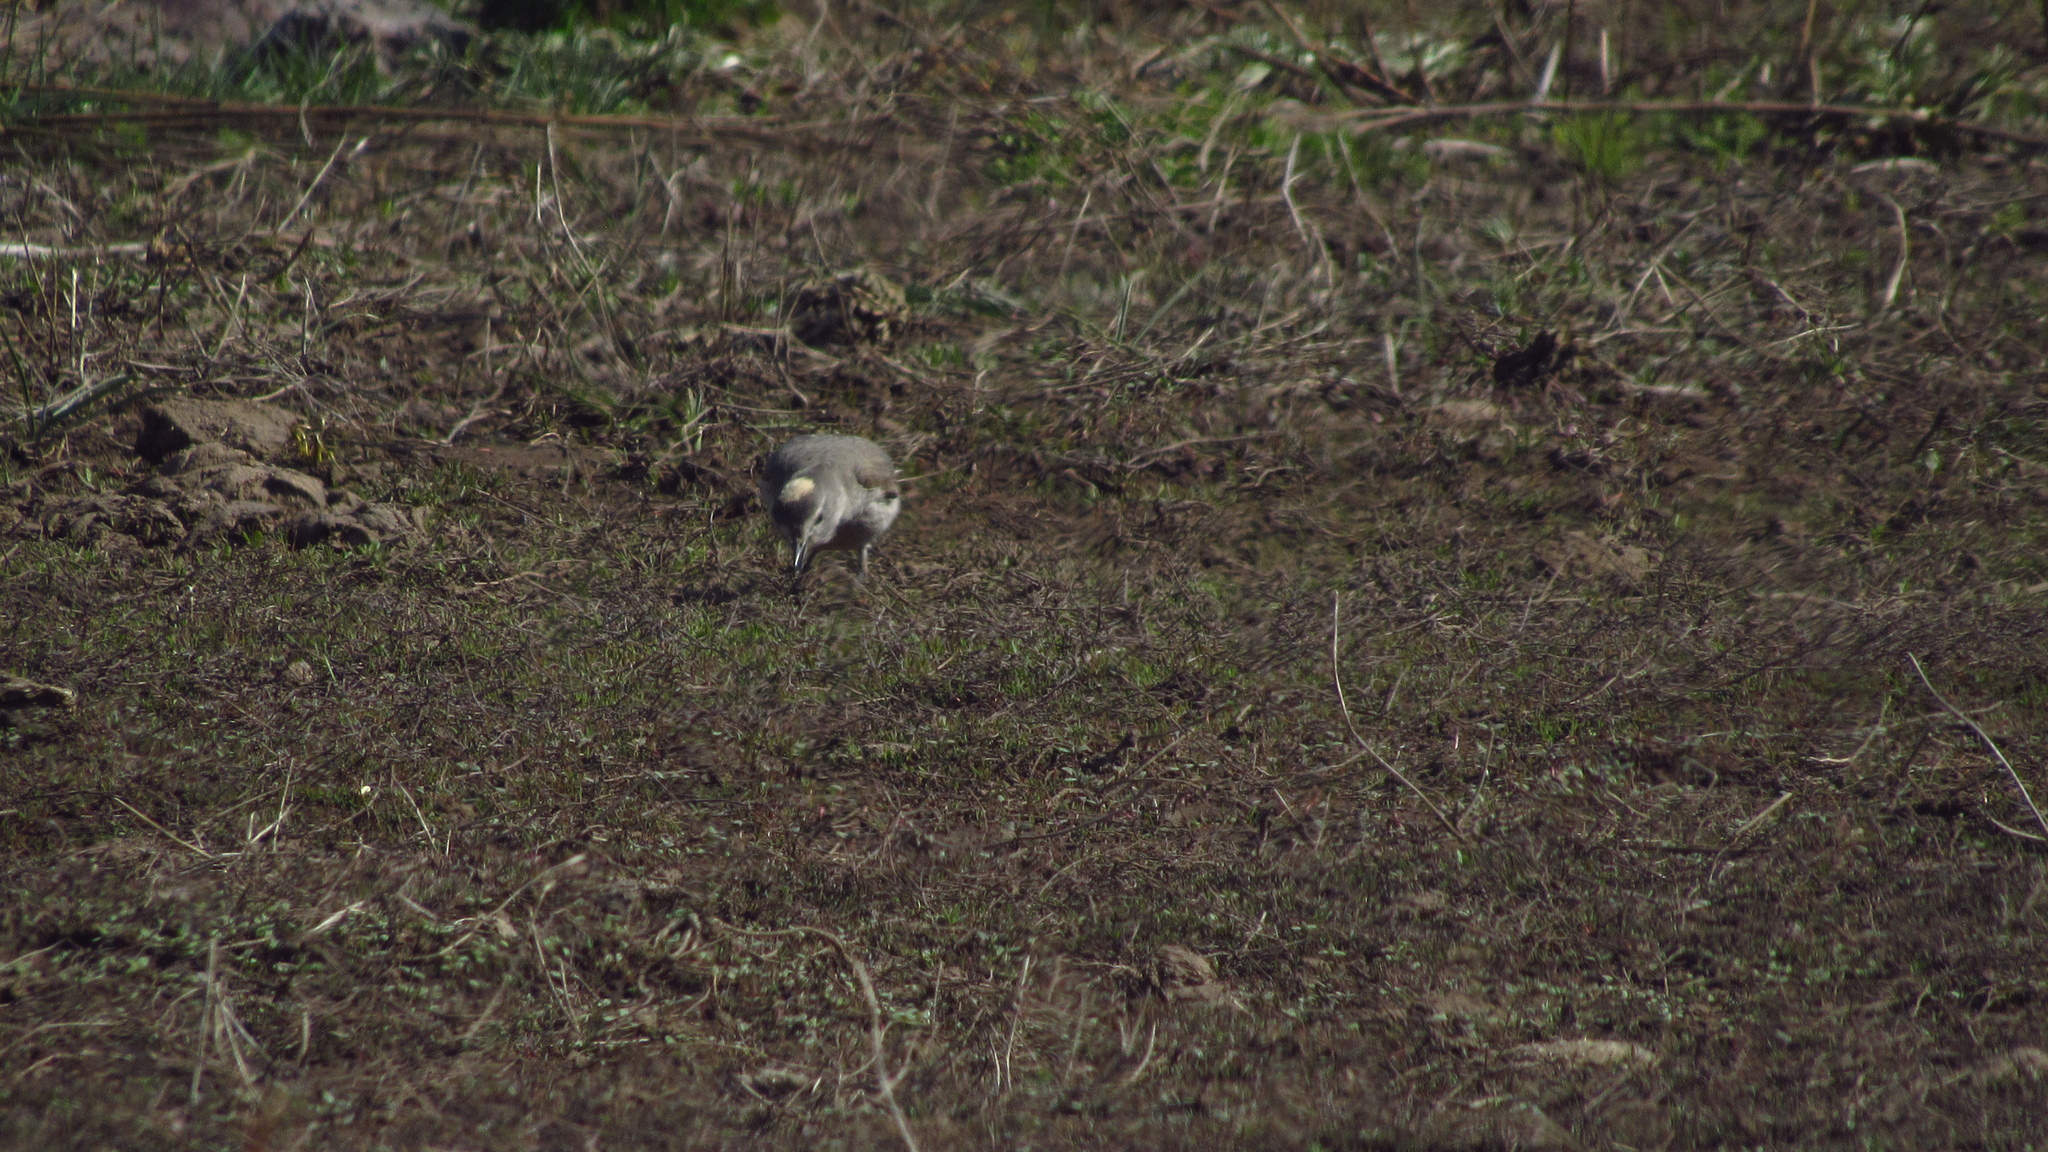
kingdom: Animalia
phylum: Chordata
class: Aves
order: Passeriformes
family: Tyrannidae
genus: Muscisaxicola
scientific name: Muscisaxicola flavinucha
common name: Ochre-naped ground tyrant
